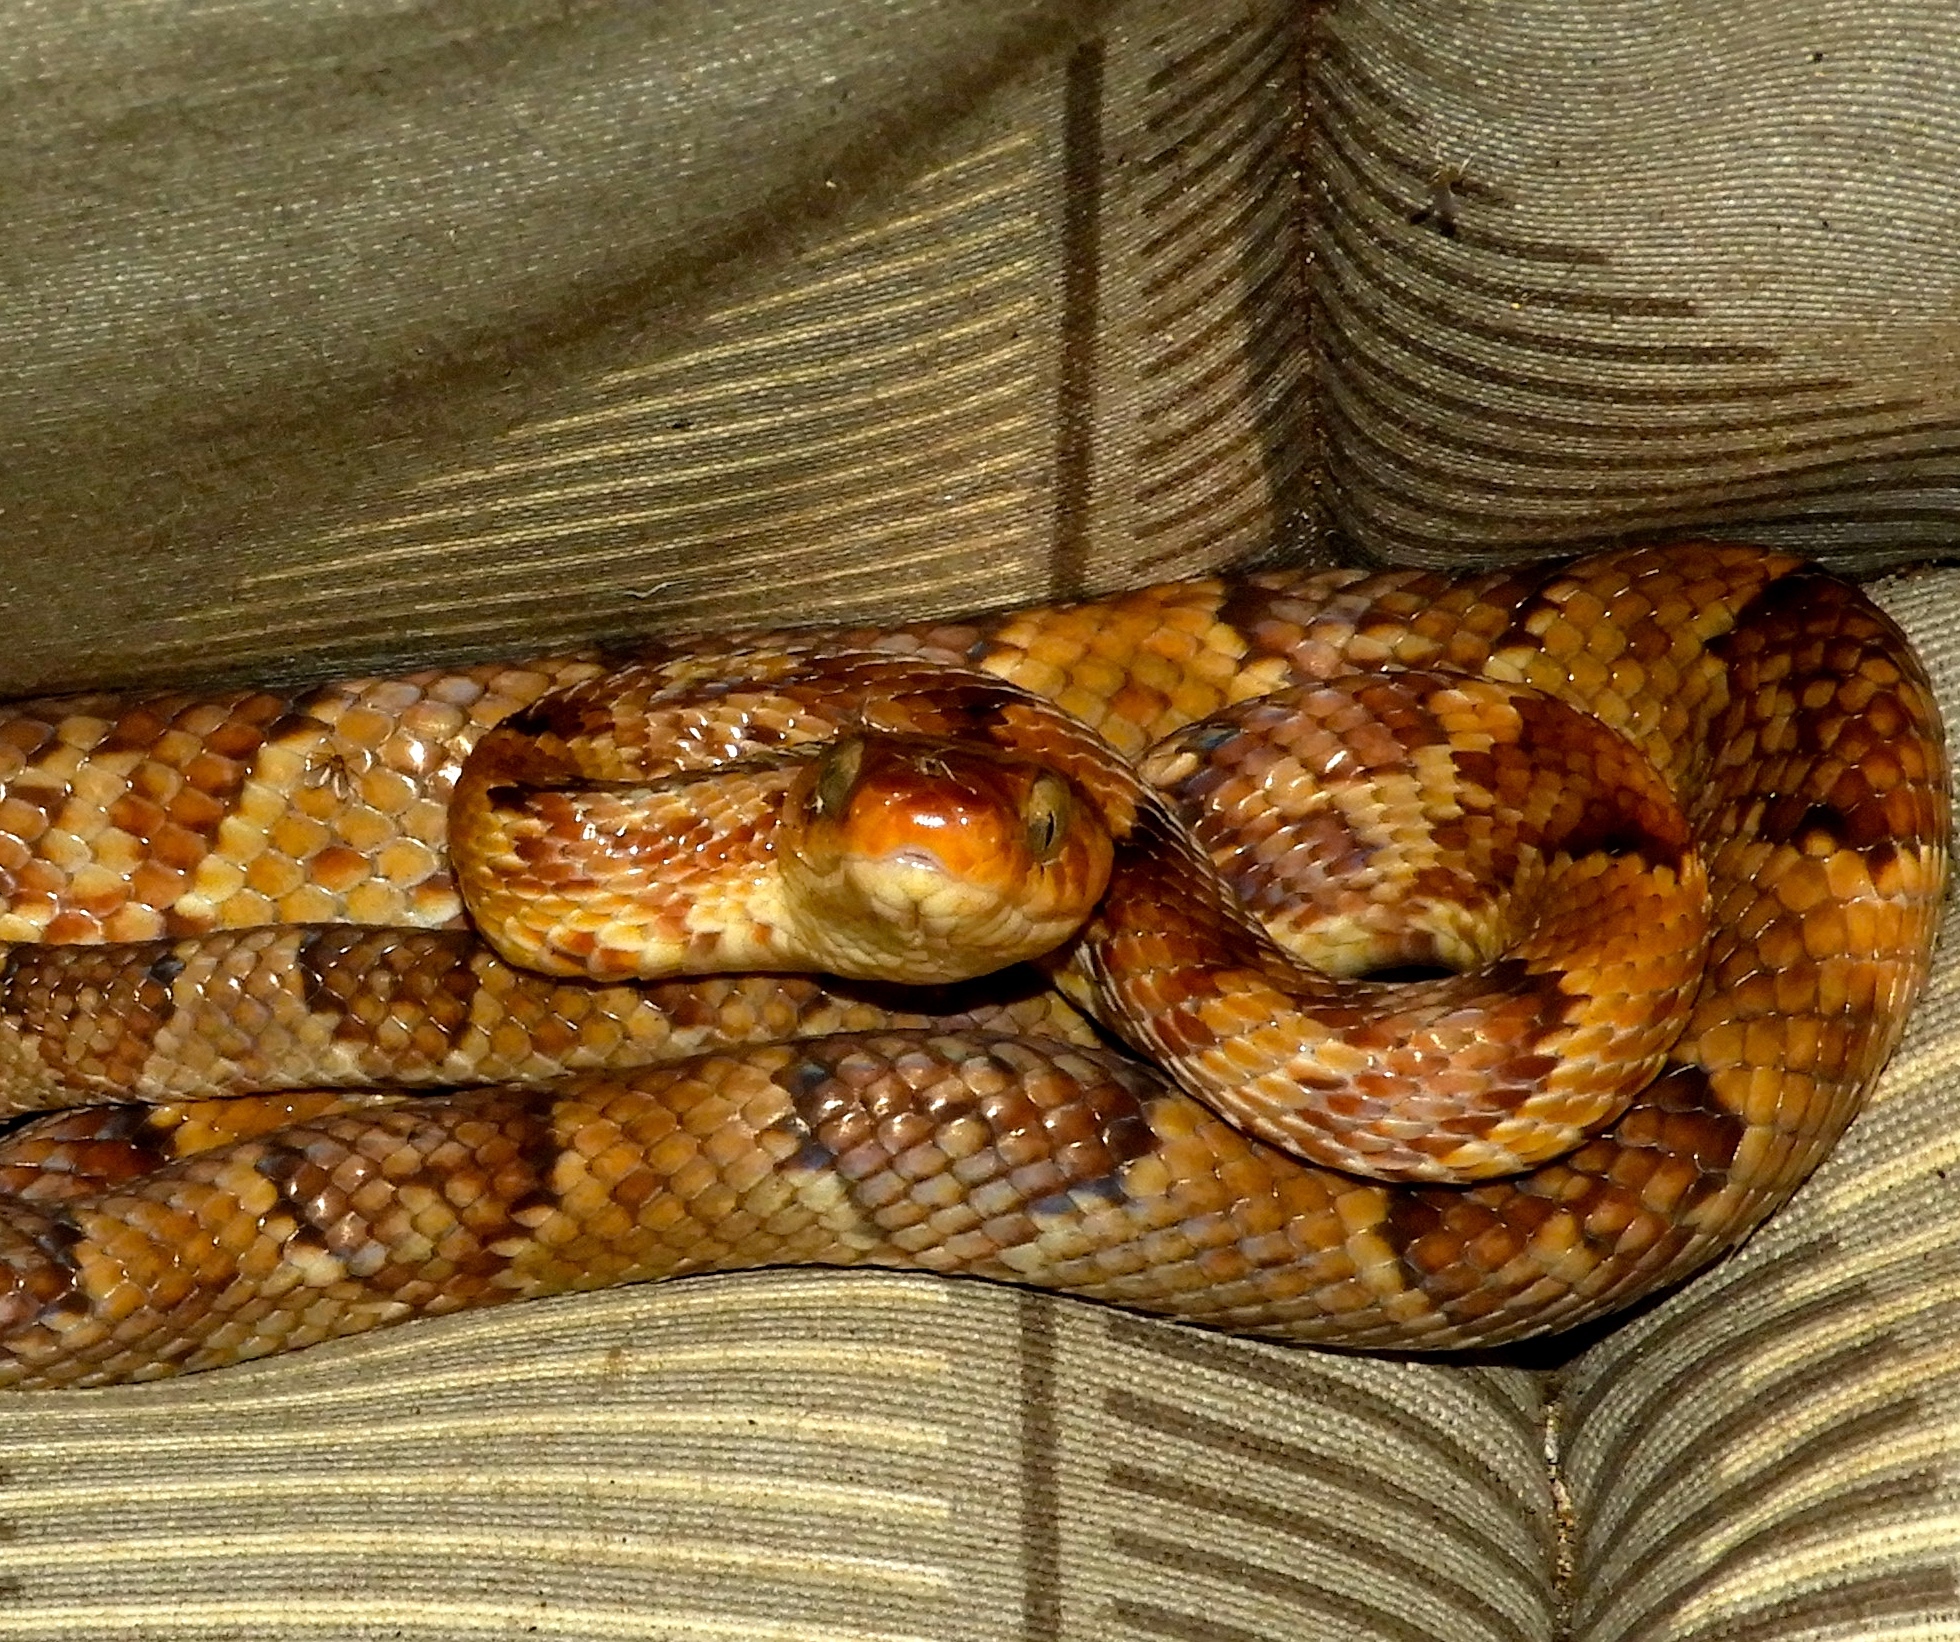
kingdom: Animalia
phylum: Chordata
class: Squamata
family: Colubridae
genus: Trimorphodon
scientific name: Trimorphodon paucimaculatus
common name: Sinaloan lyresnake
